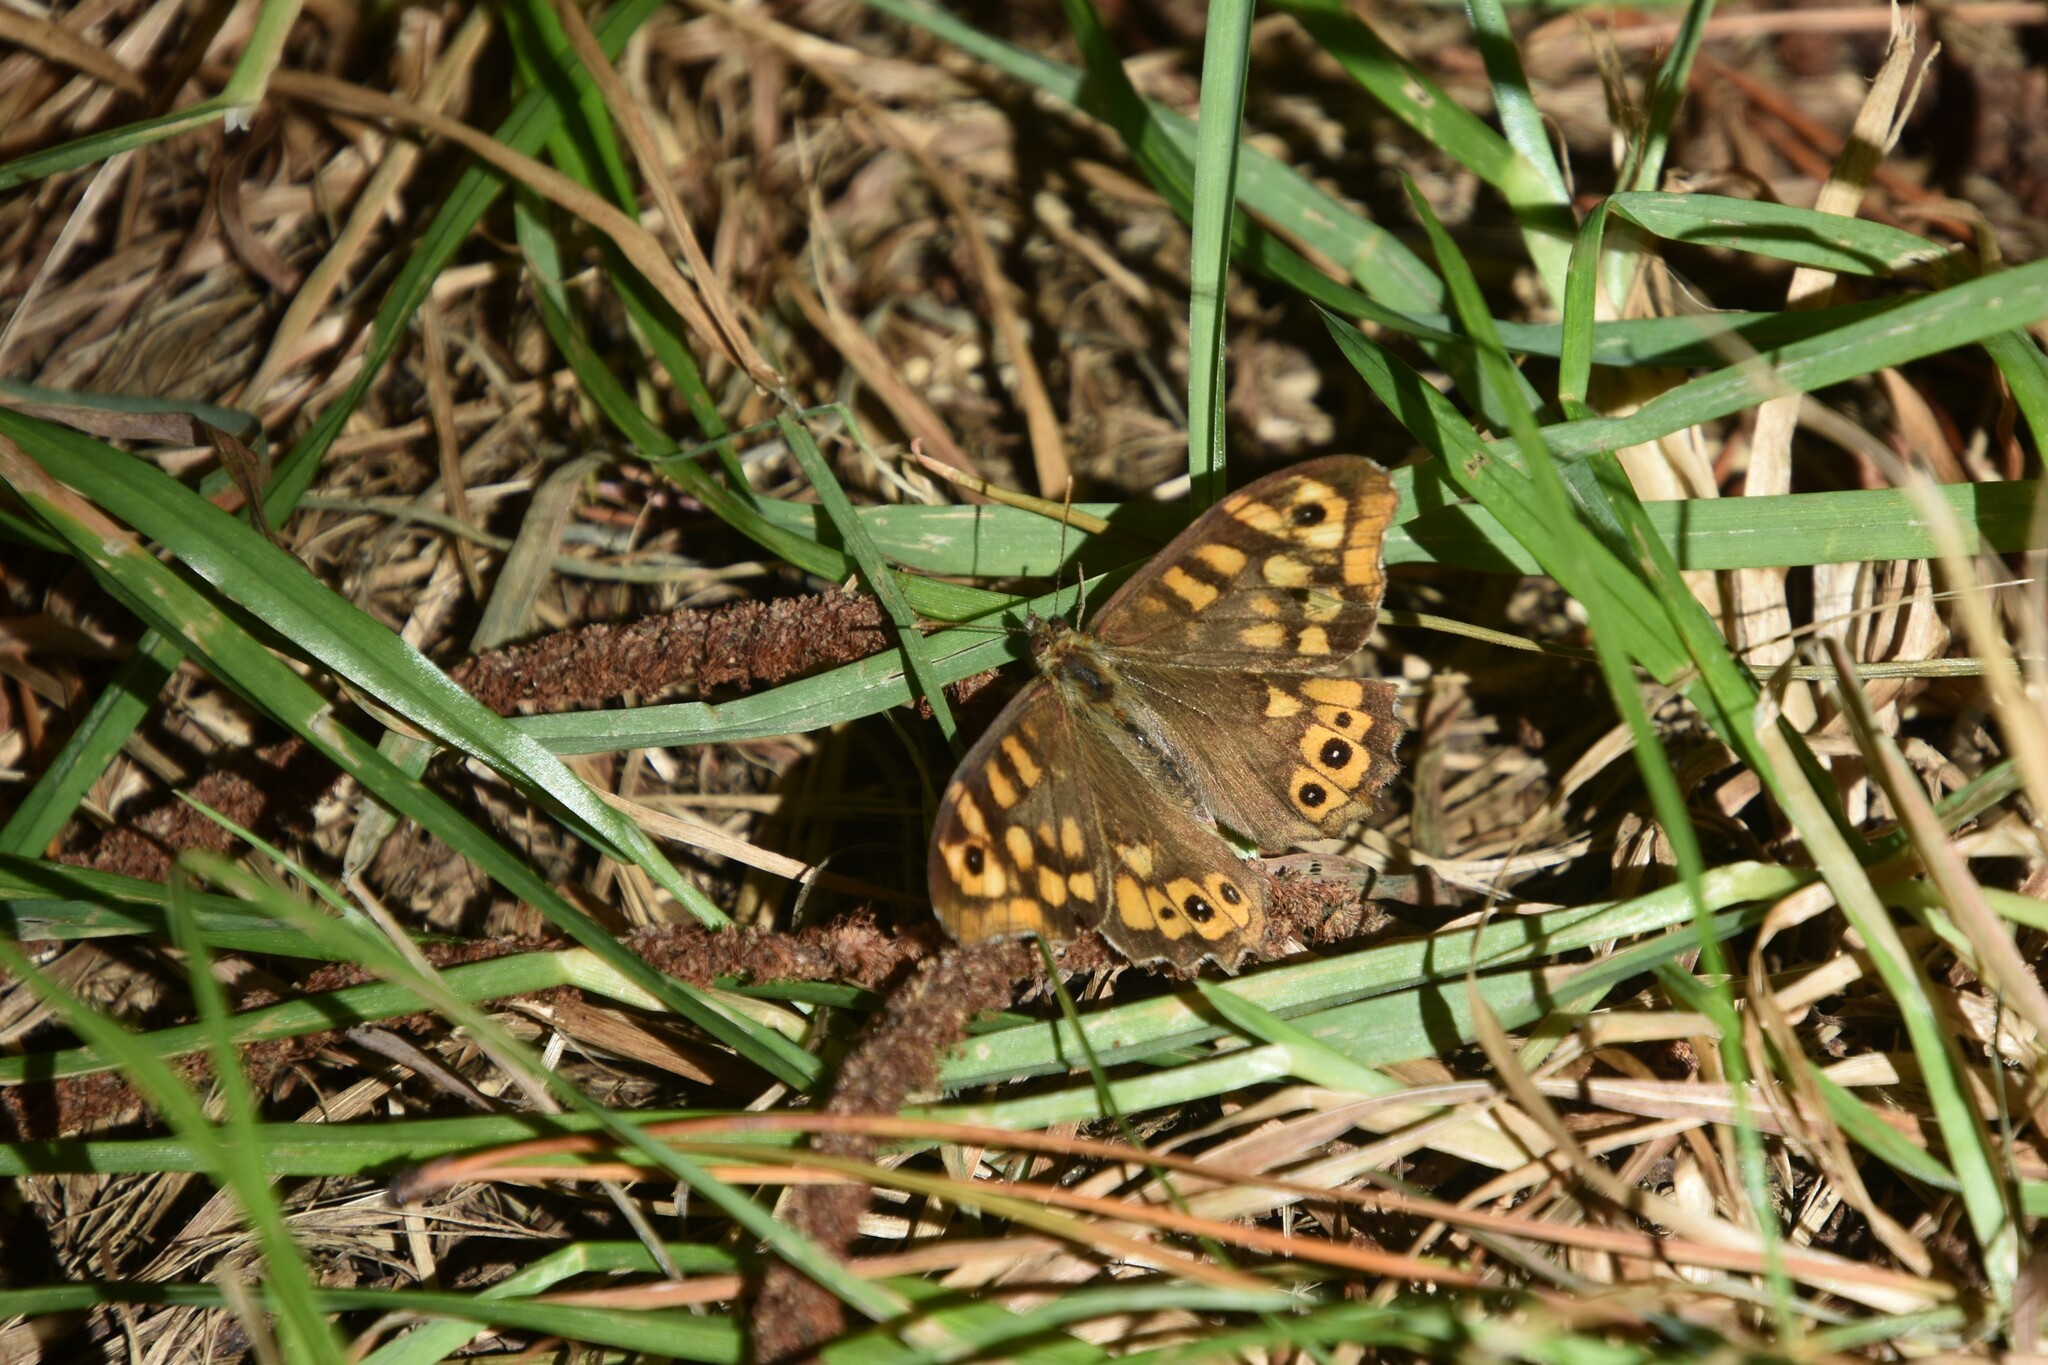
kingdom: Animalia
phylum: Arthropoda
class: Insecta
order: Lepidoptera
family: Nymphalidae
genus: Pararge
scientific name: Pararge aegeria
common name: Speckled wood
